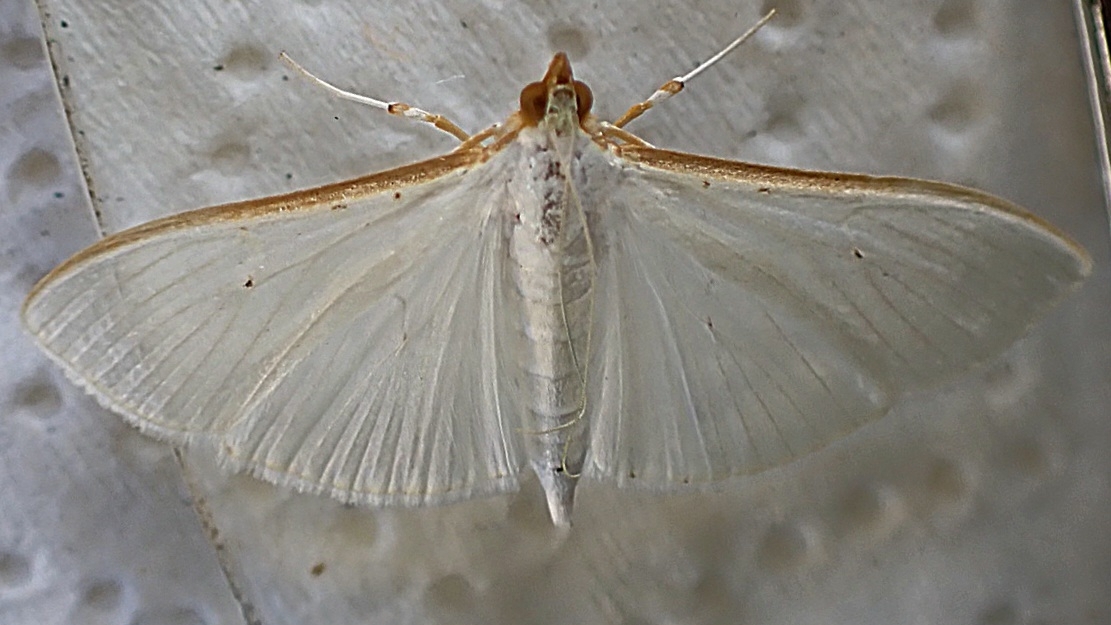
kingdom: Animalia
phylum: Arthropoda
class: Insecta
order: Lepidoptera
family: Crambidae
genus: Palpita
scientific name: Palpita vitrealis
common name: Olive-tree pearl
